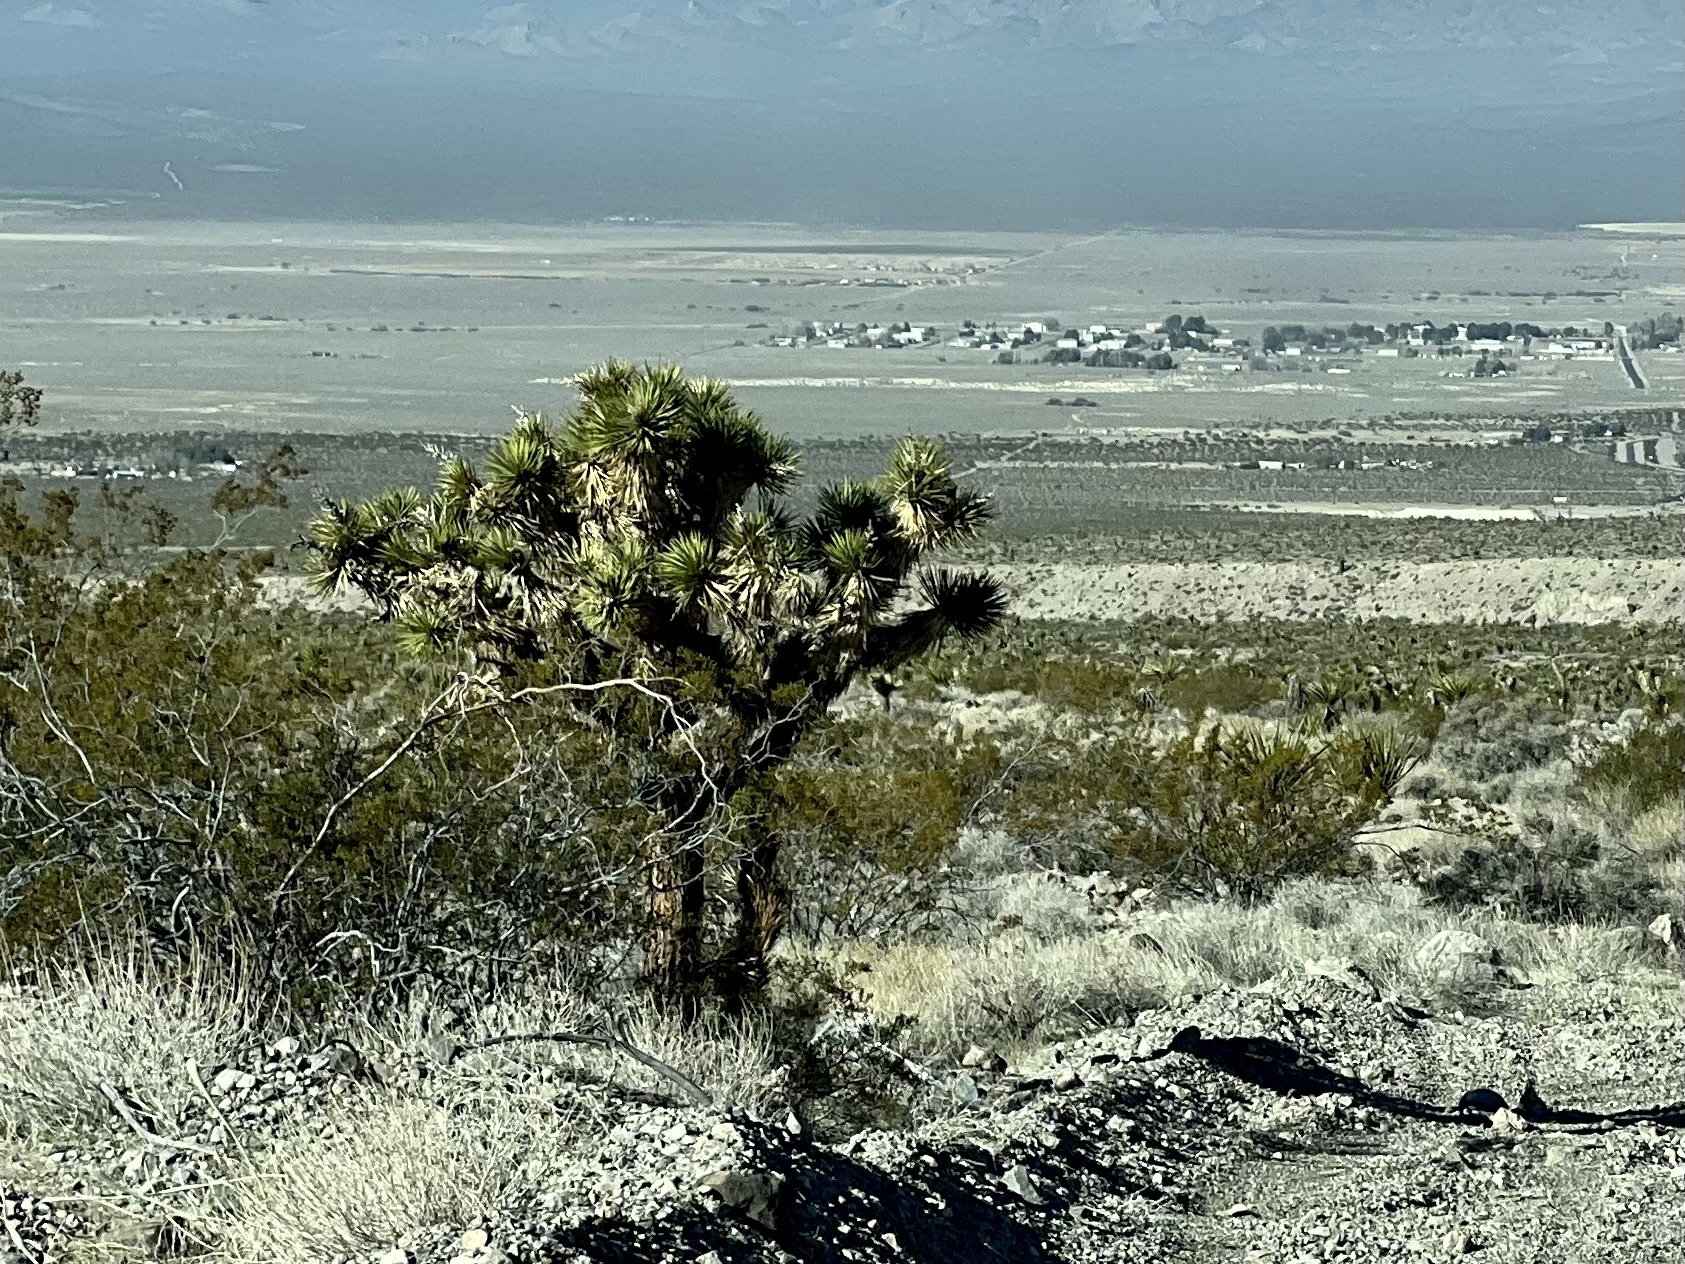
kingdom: Plantae
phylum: Tracheophyta
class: Liliopsida
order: Asparagales
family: Asparagaceae
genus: Yucca
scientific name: Yucca brevifolia
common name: Joshua tree
